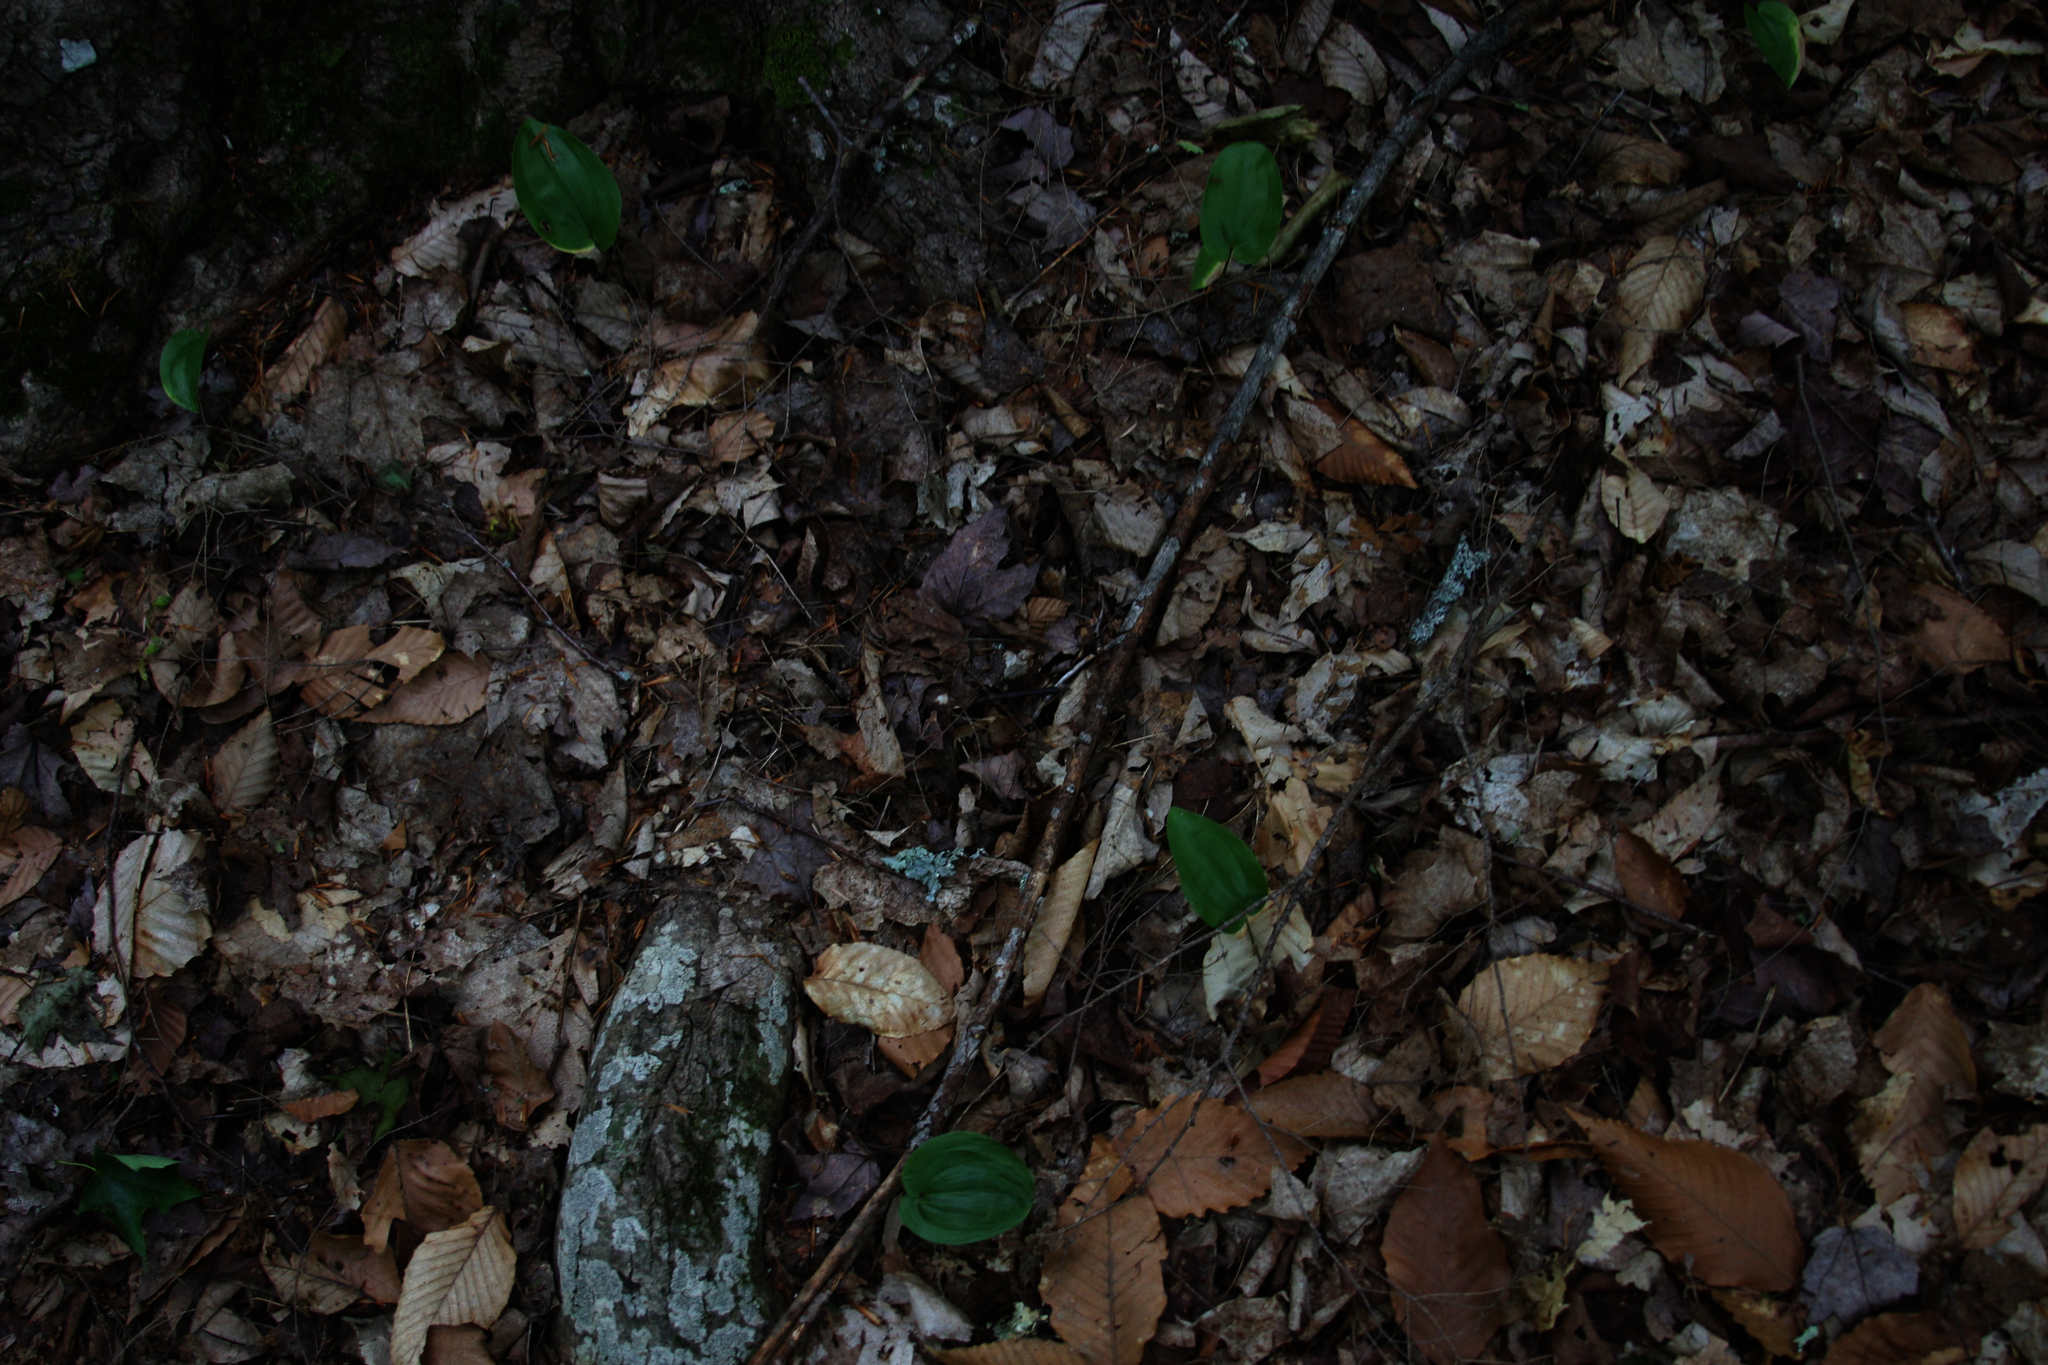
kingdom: Plantae
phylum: Tracheophyta
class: Liliopsida
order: Asparagales
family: Asparagaceae
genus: Maianthemum
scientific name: Maianthemum canadense
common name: False lily-of-the-valley
